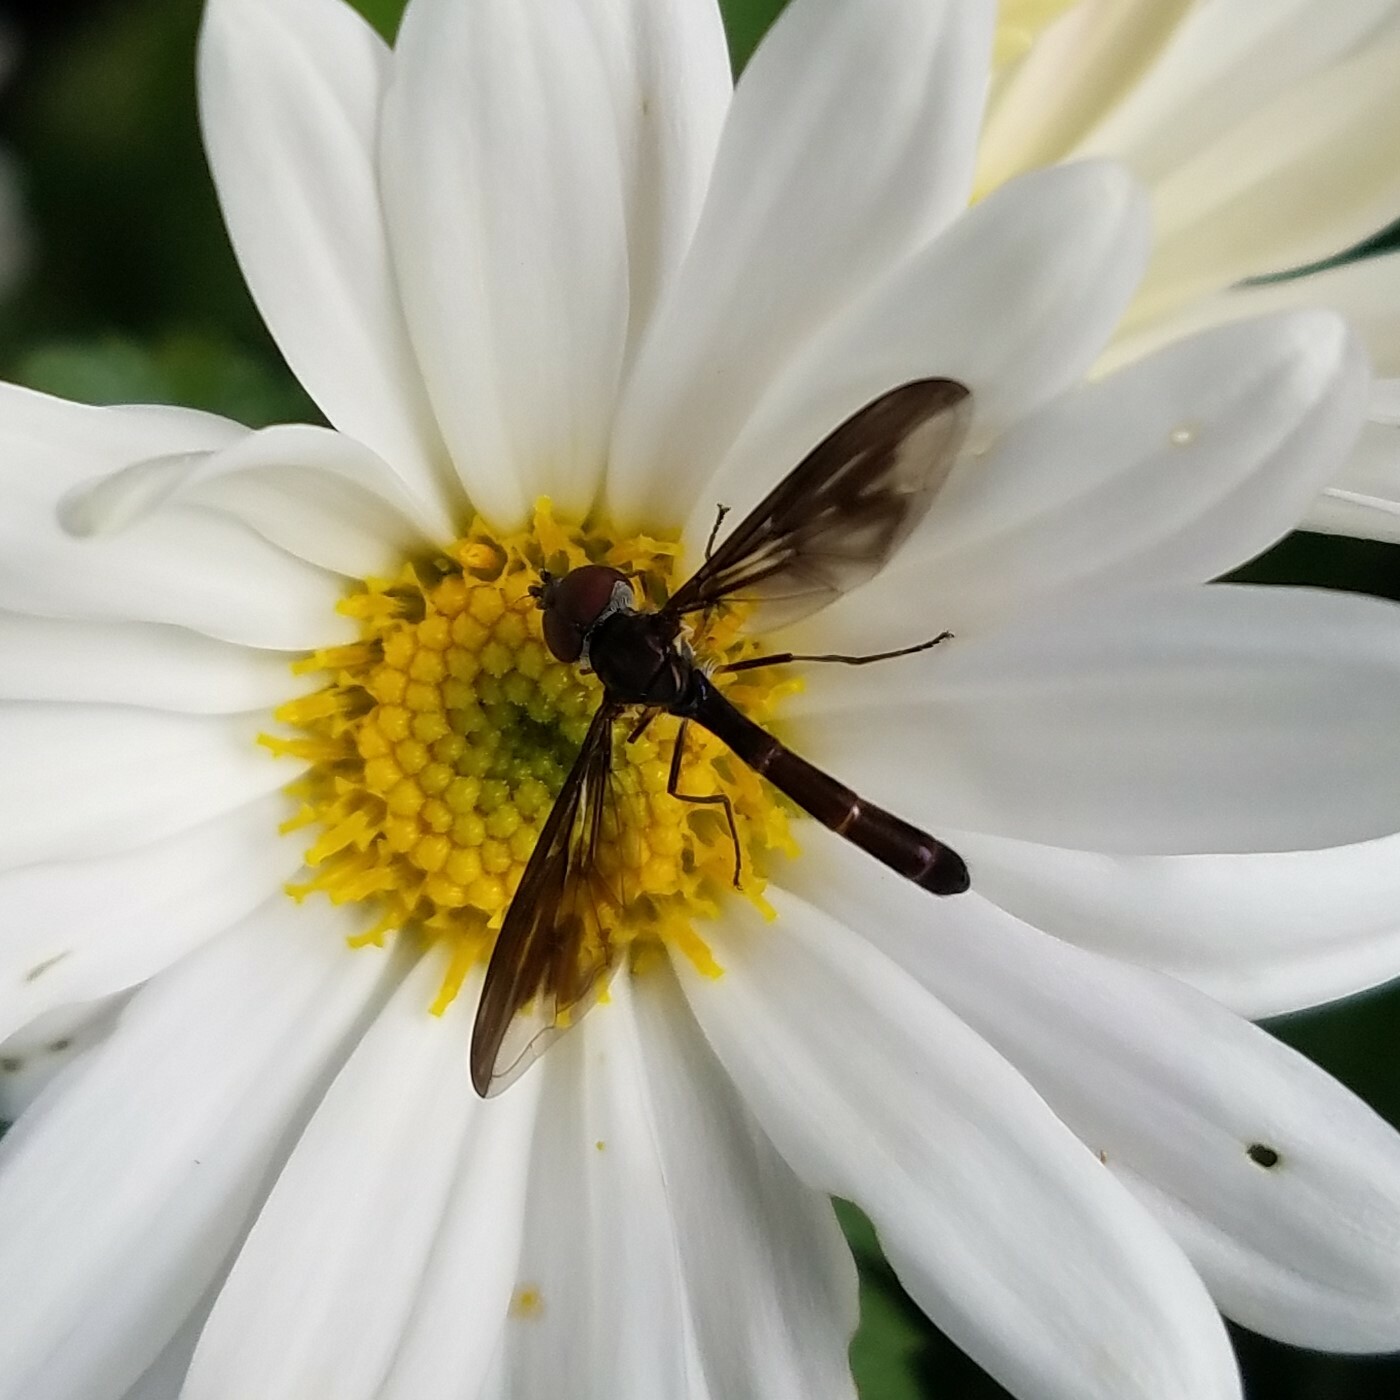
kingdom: Animalia
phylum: Arthropoda
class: Insecta
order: Diptera
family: Syrphidae
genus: Ocyptamus
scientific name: Ocyptamus fuscipennis
